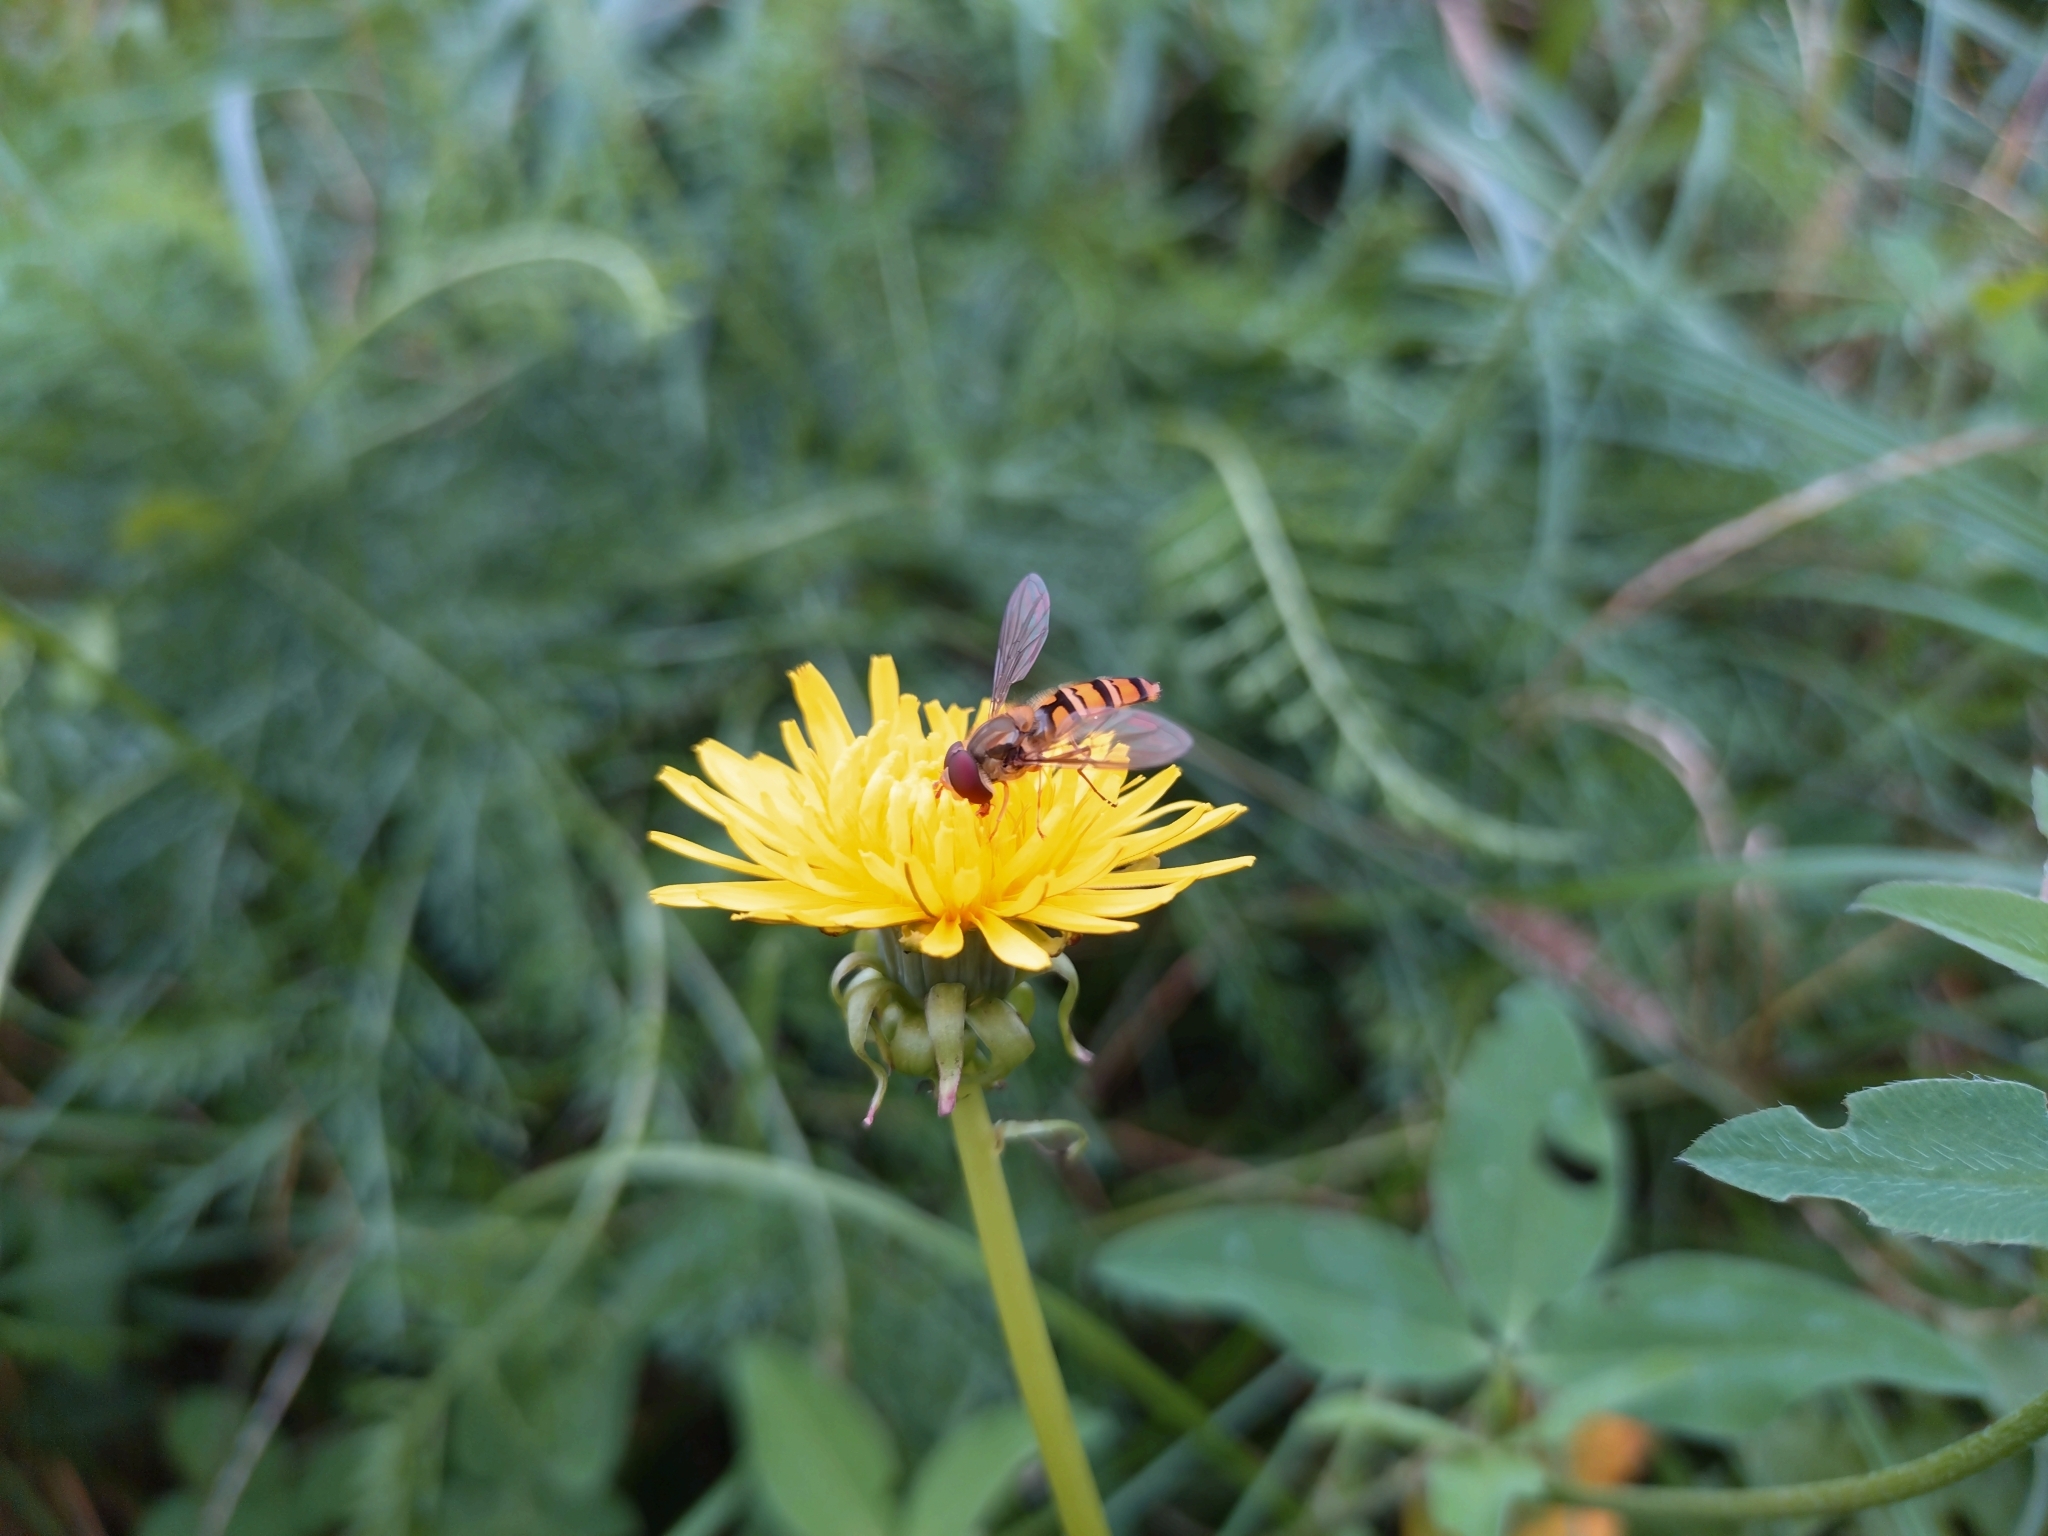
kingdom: Animalia
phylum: Arthropoda
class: Insecta
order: Diptera
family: Syrphidae
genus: Episyrphus
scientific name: Episyrphus balteatus
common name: Marmalade hoverfly
